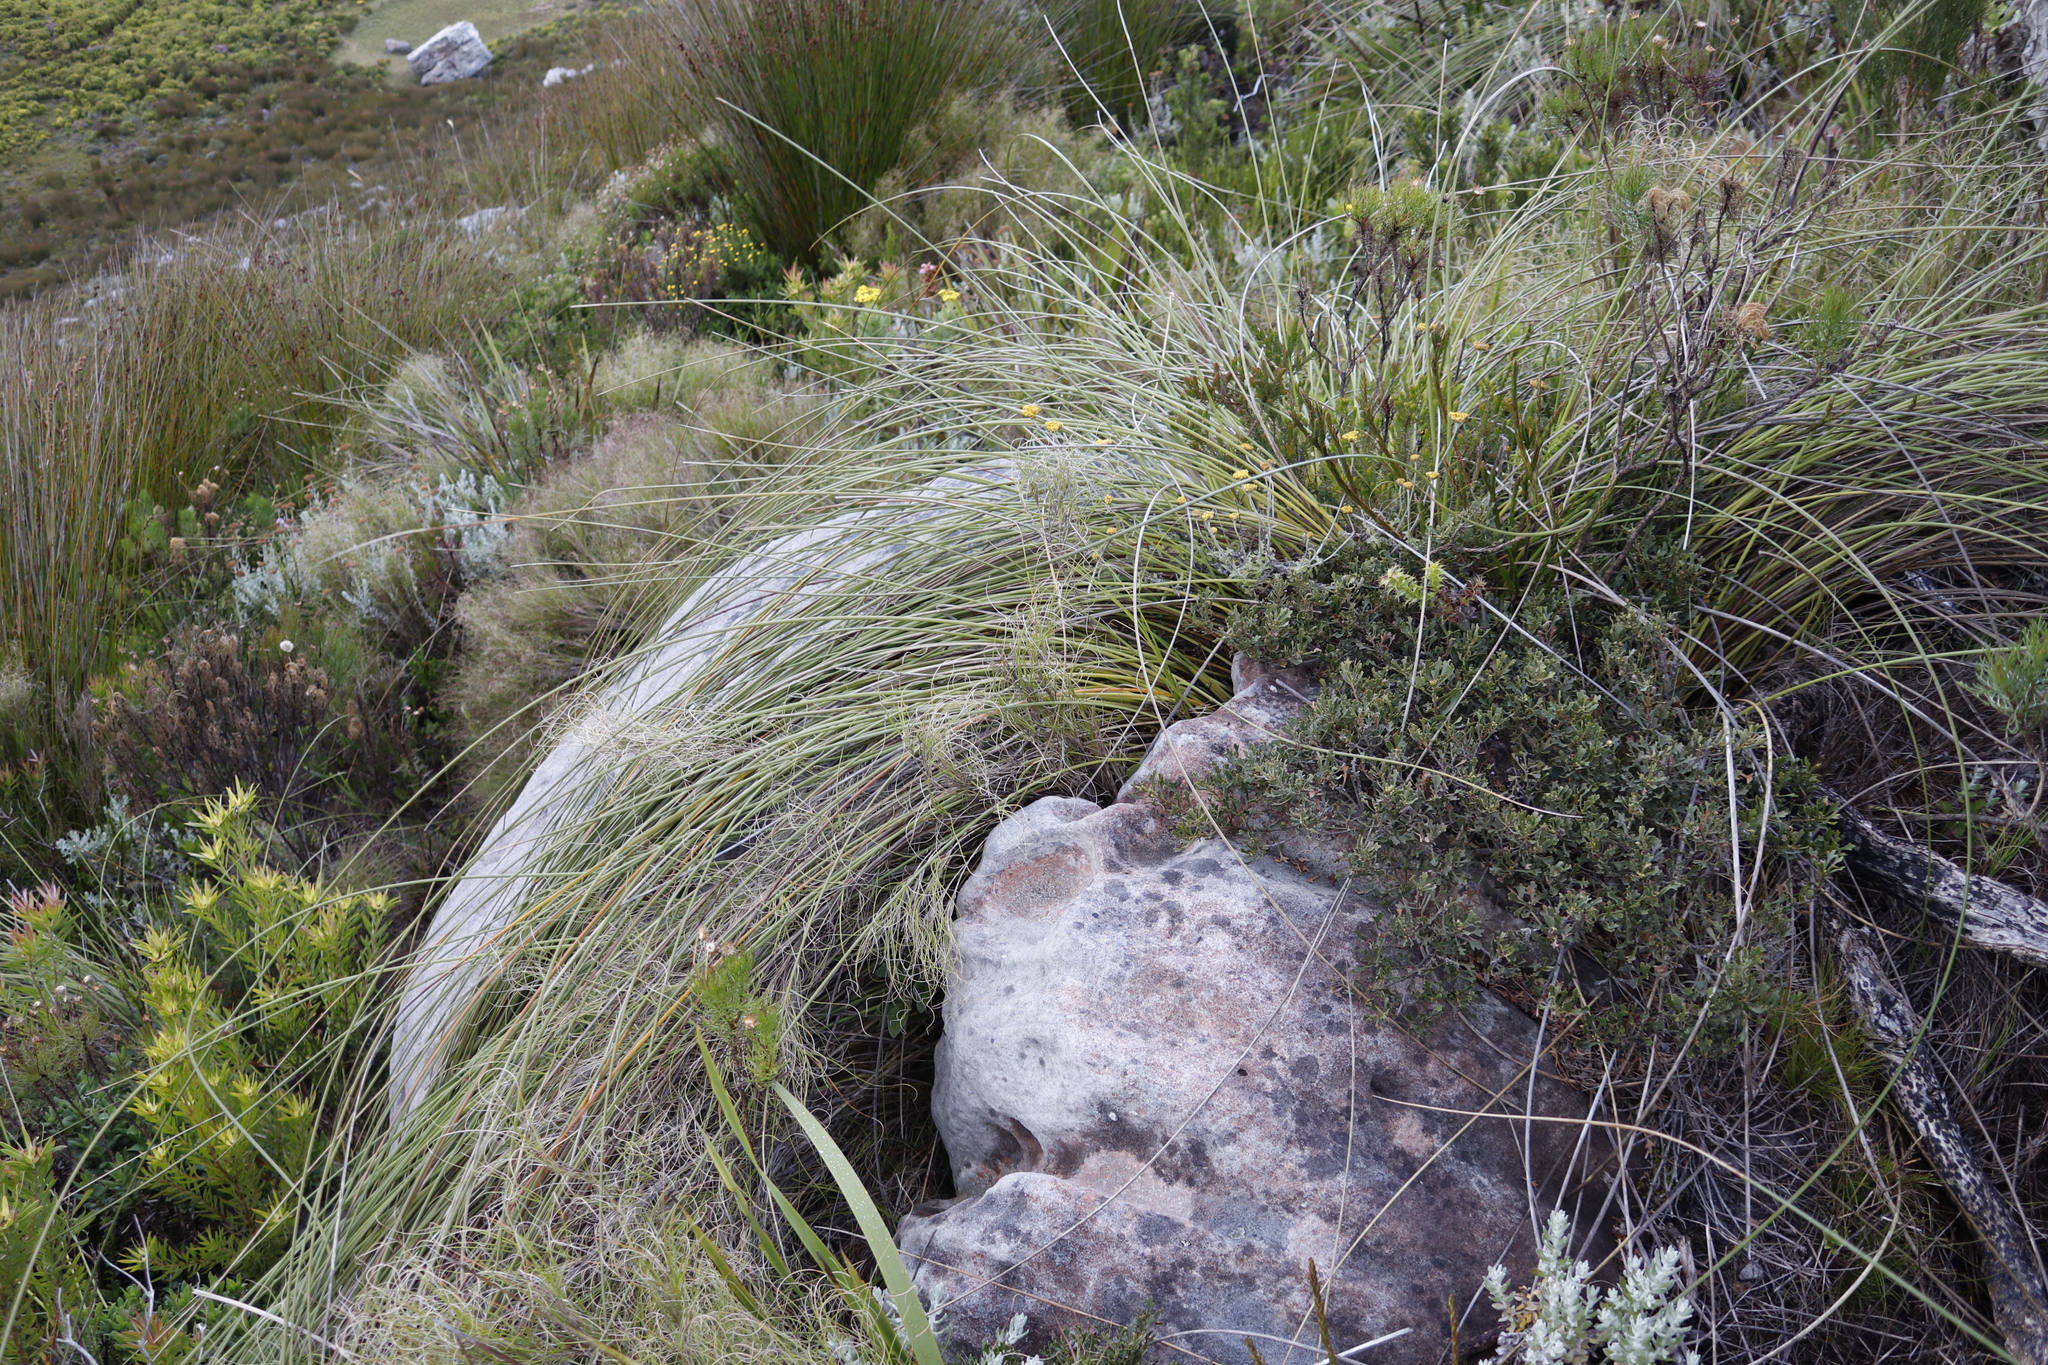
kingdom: Plantae
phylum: Tracheophyta
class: Liliopsida
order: Asparagales
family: Iridaceae
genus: Bobartia
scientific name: Bobartia indica
